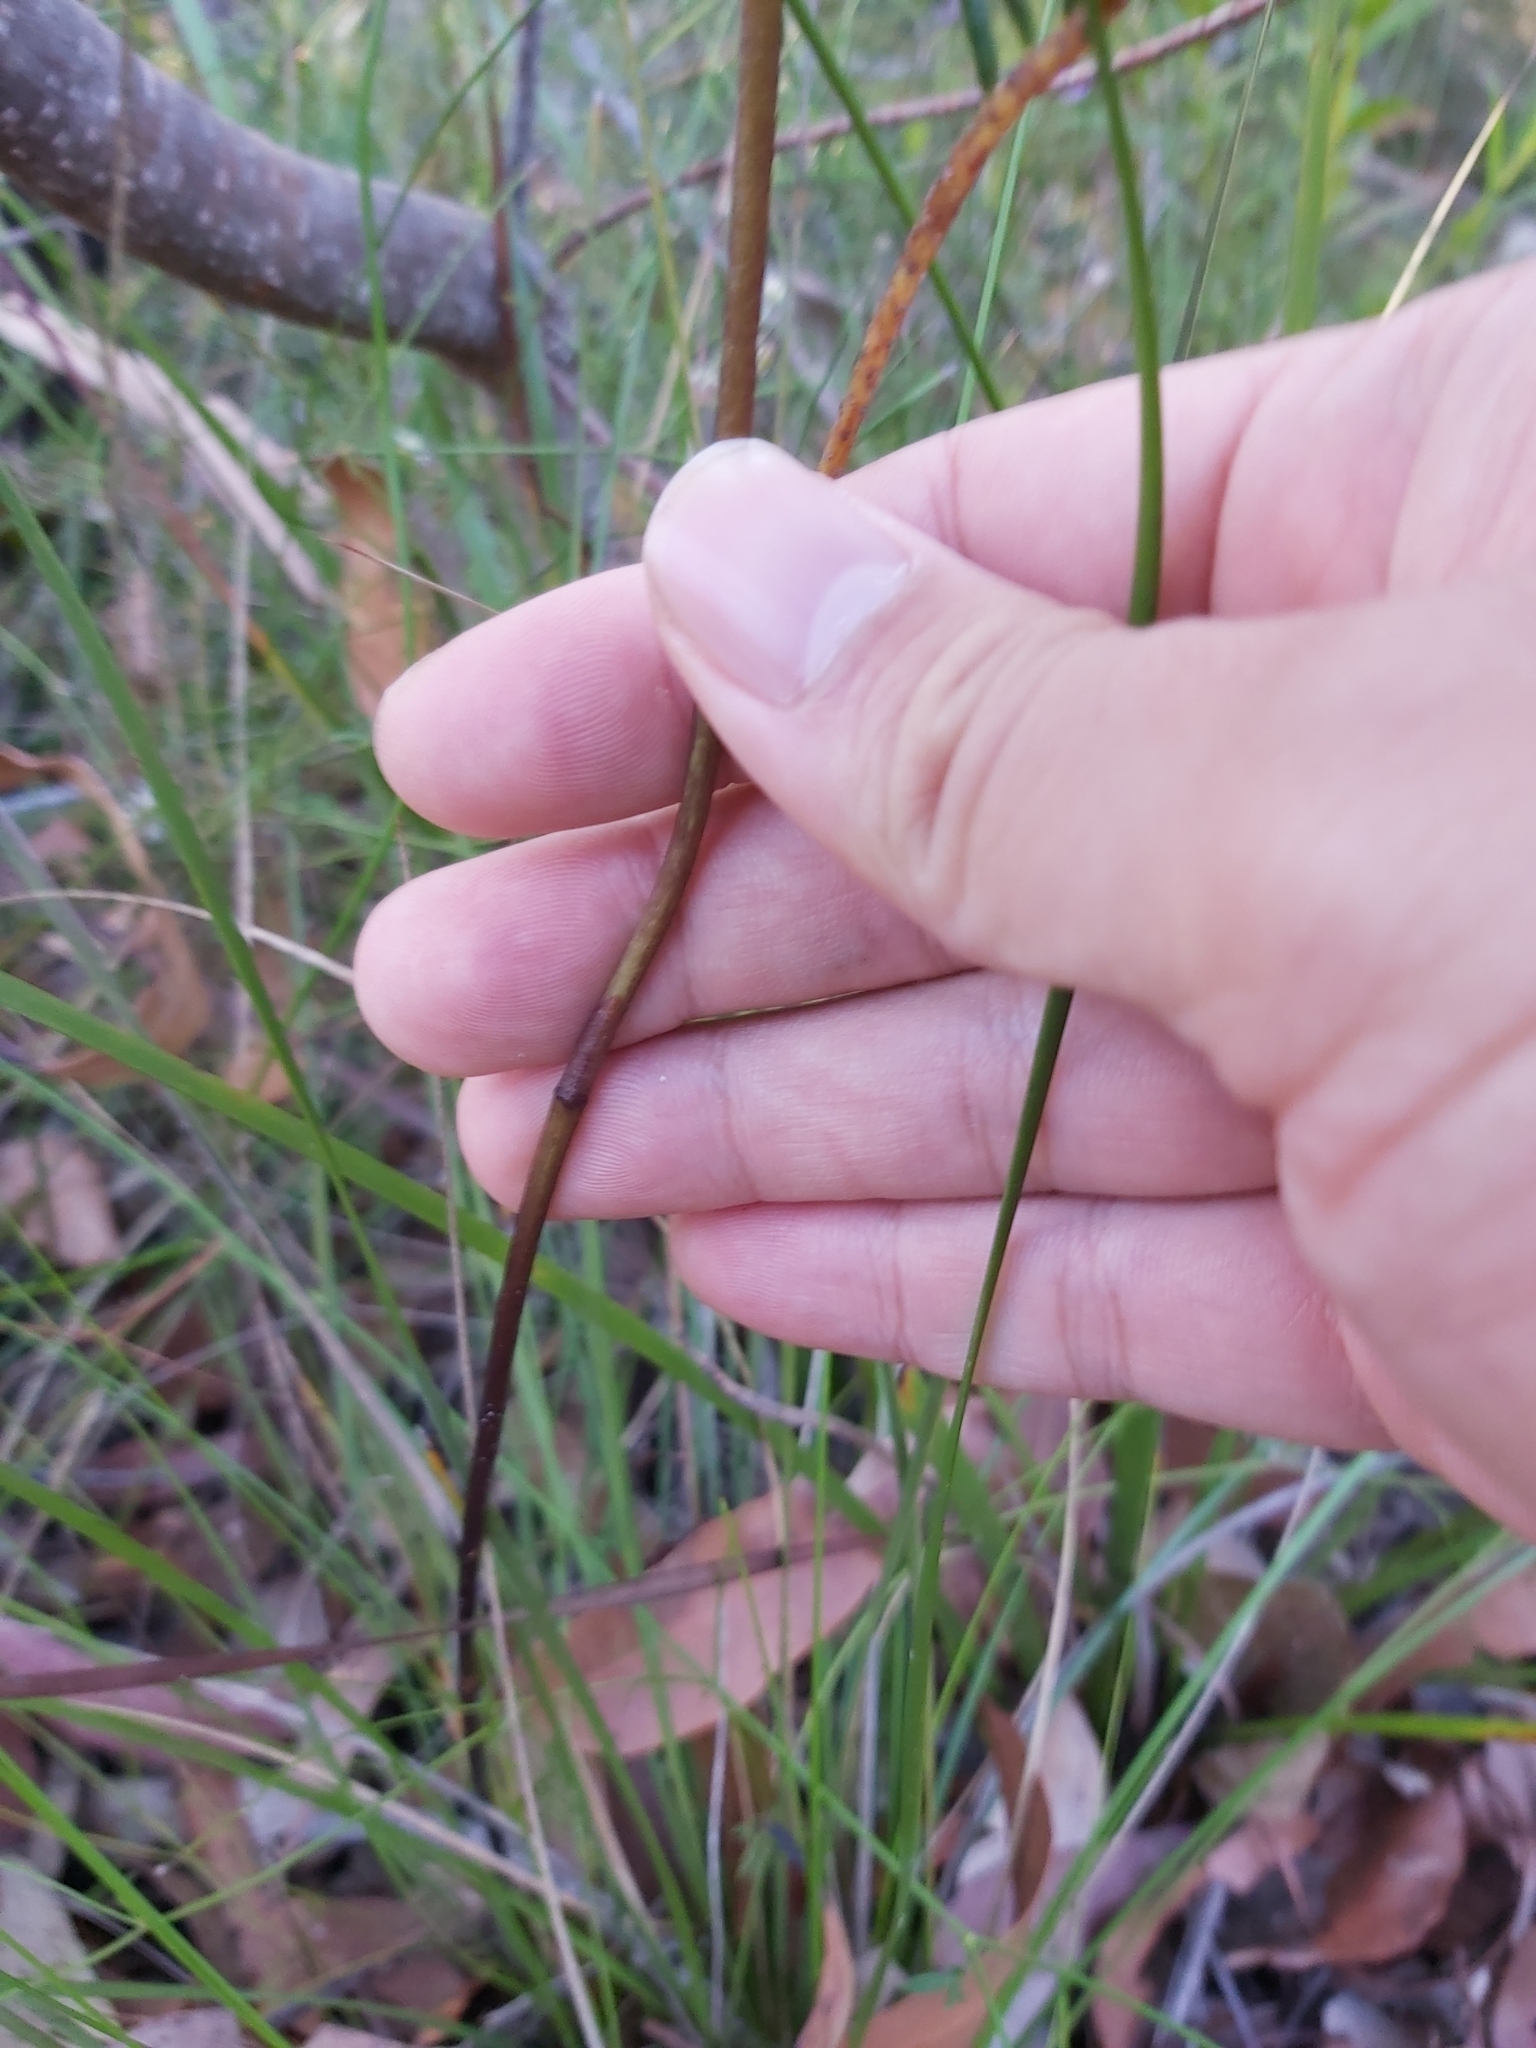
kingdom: Plantae
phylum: Tracheophyta
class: Liliopsida
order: Asparagales
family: Orchidaceae
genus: Dipodium
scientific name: Dipodium variegatum
